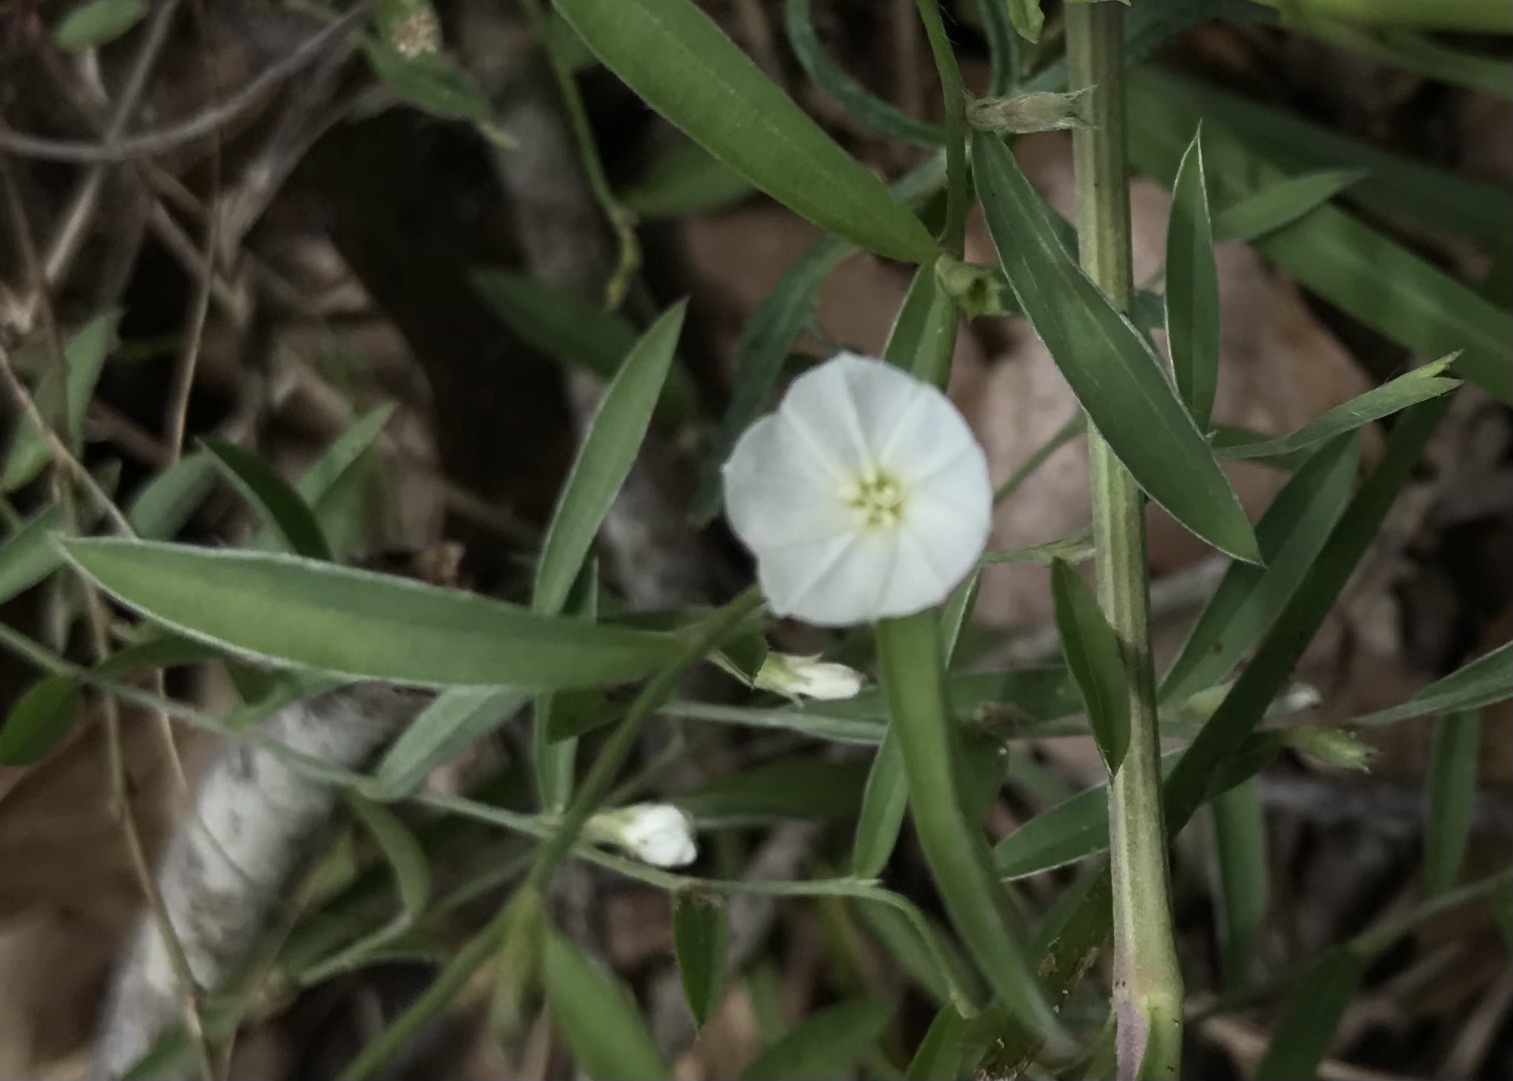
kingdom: Plantae
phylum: Tracheophyta
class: Magnoliopsida
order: Solanales
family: Convolvulaceae
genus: Evolvulus
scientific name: Evolvulus sericeus
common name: Blue dots
